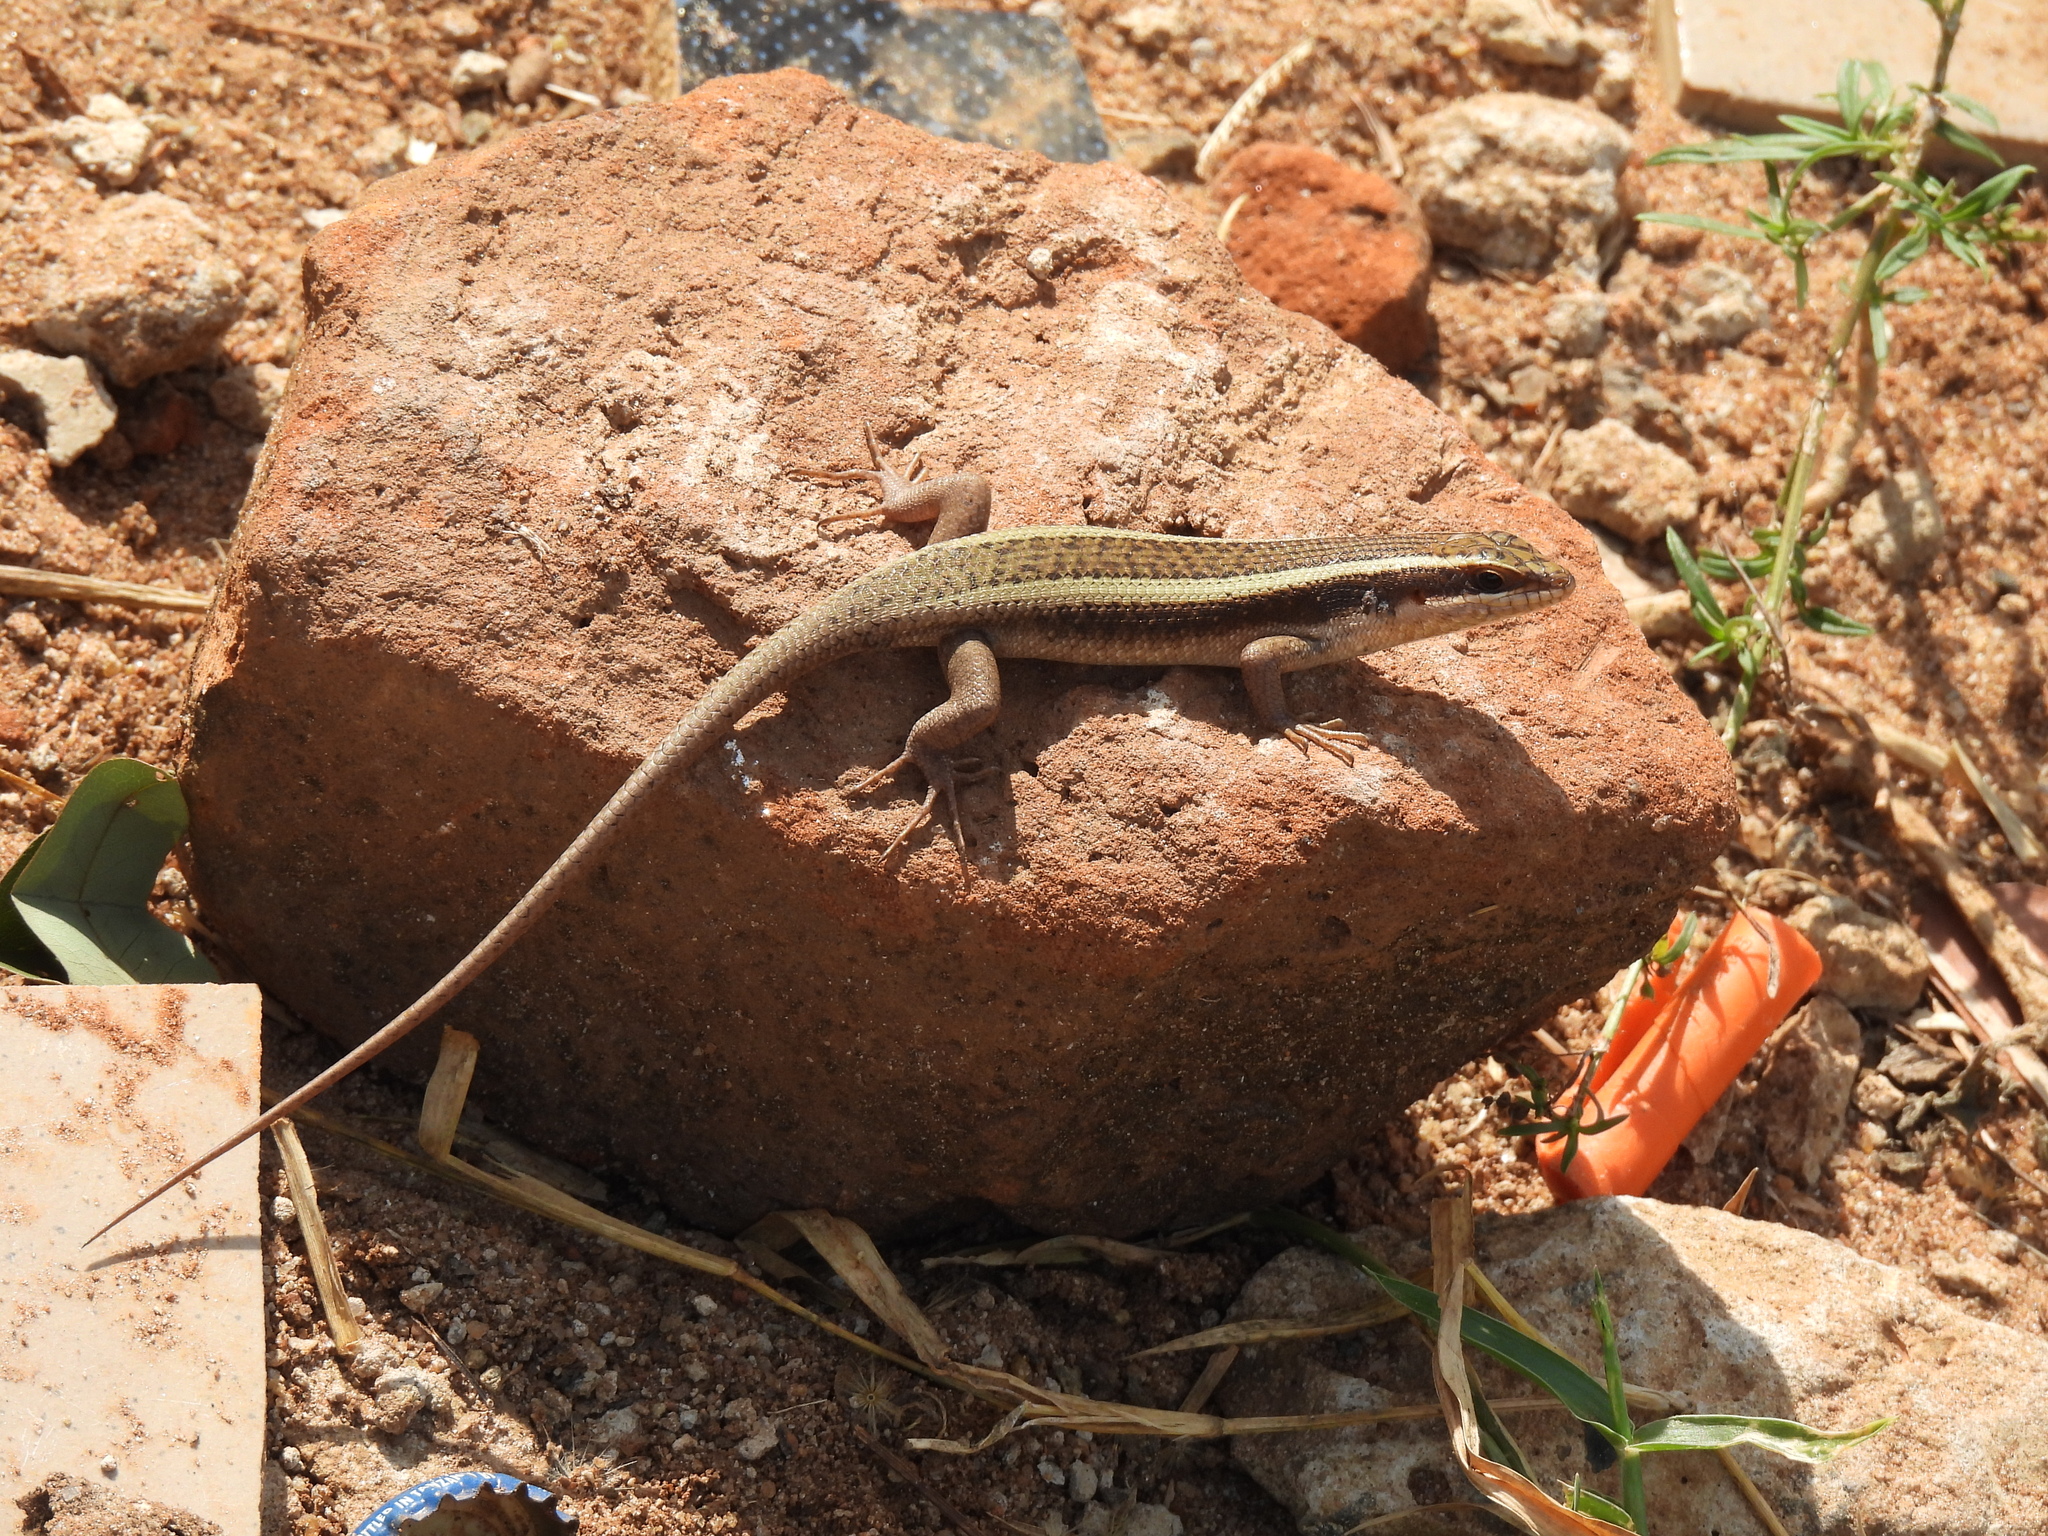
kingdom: Animalia
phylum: Chordata
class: Squamata
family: Scincidae
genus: Trachylepis
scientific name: Trachylepis striata
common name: African striped mabuya
